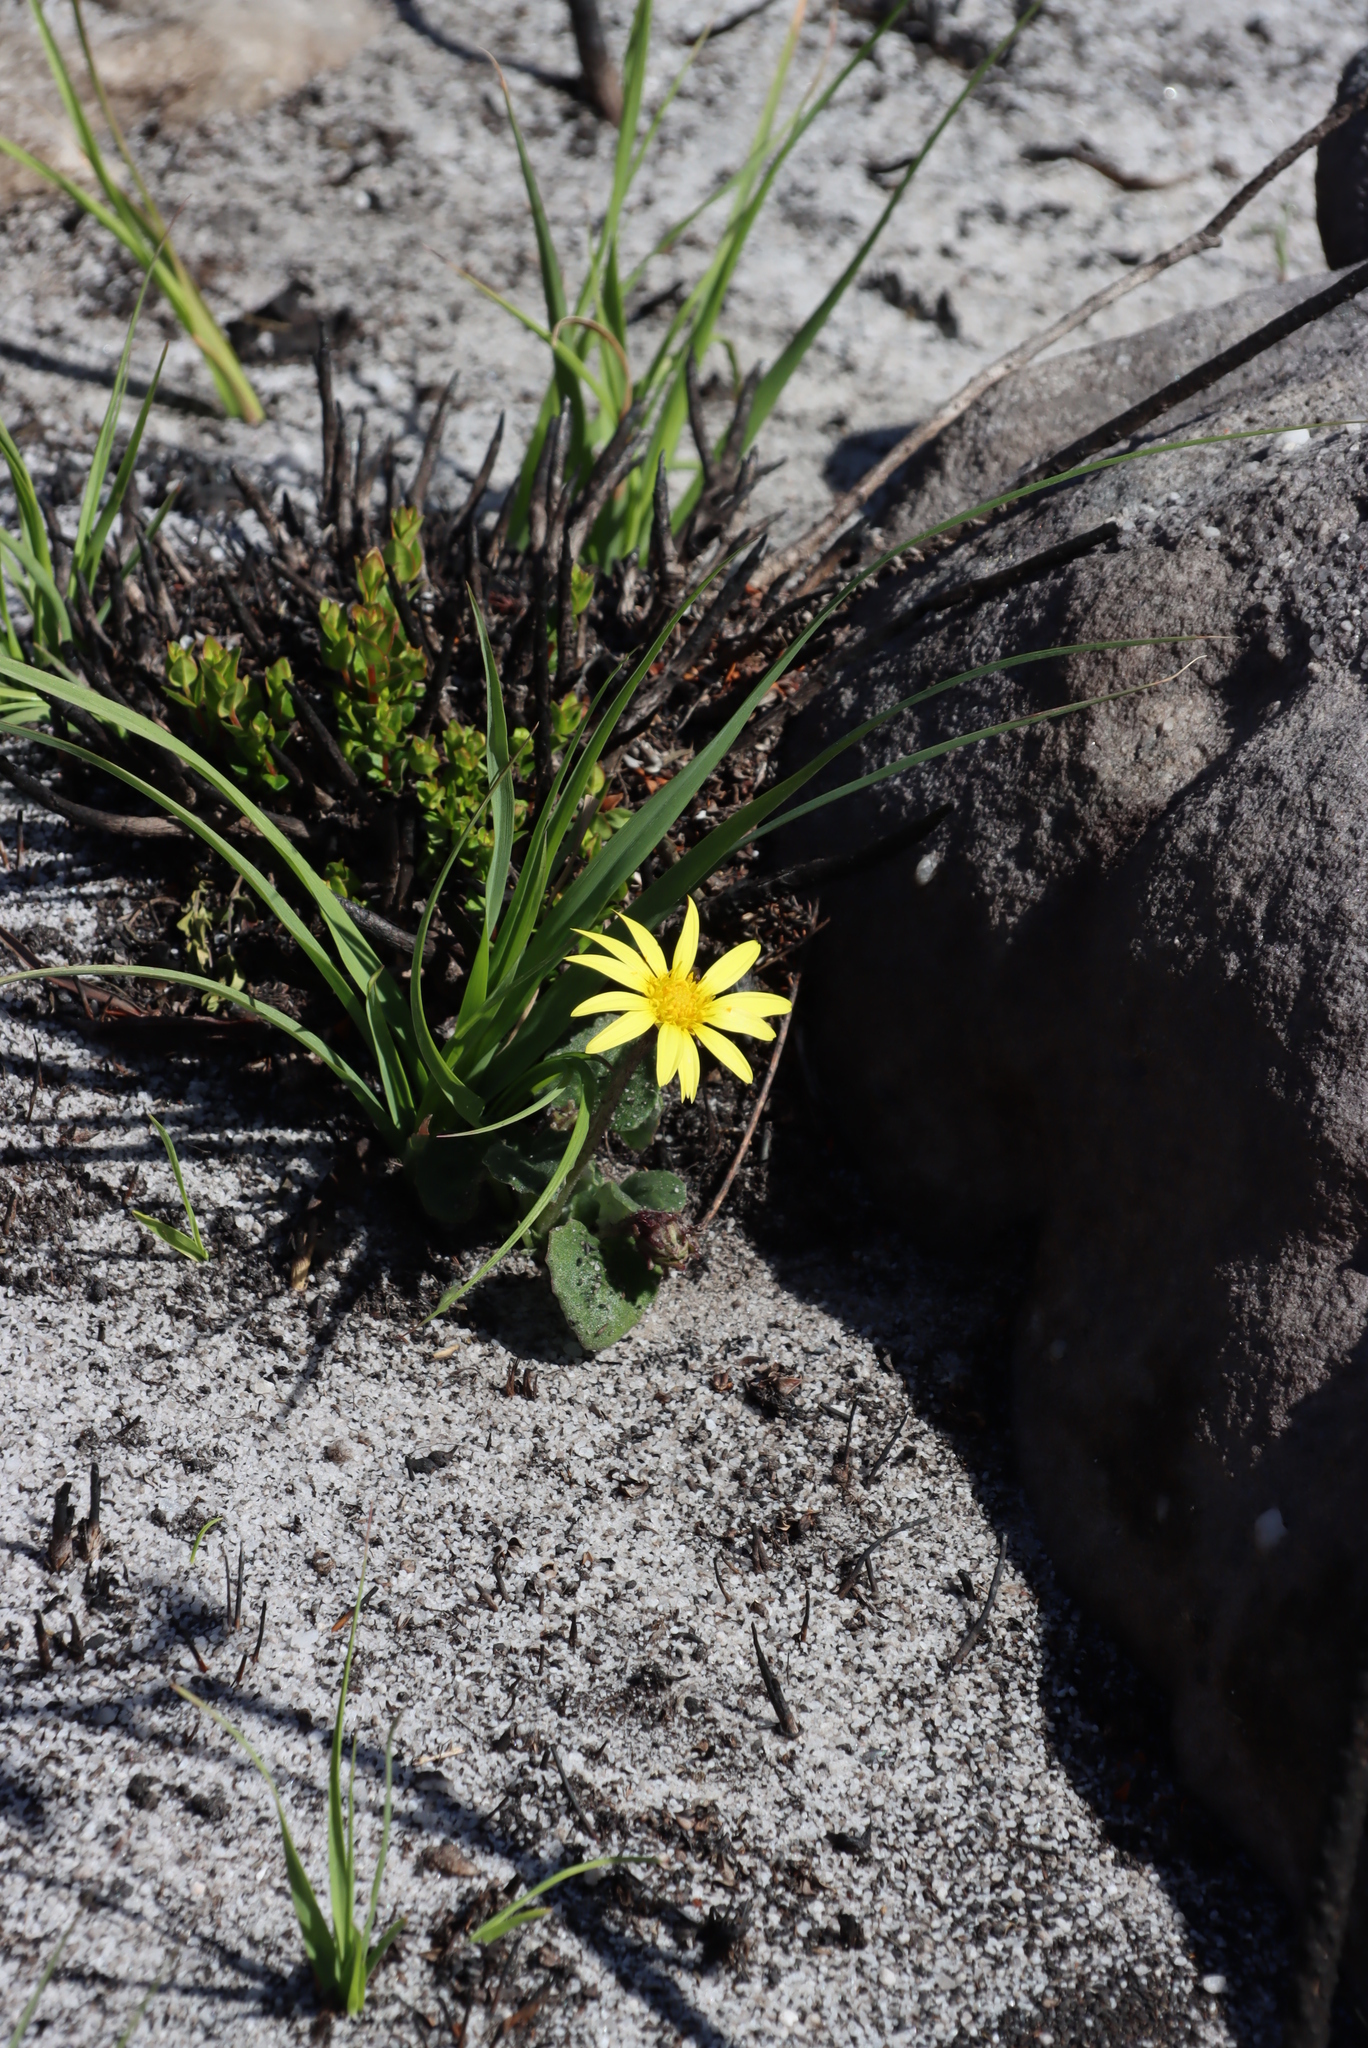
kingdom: Plantae
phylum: Tracheophyta
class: Magnoliopsida
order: Asterales
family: Asteraceae
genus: Haplocarpha
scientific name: Haplocarpha lanata
